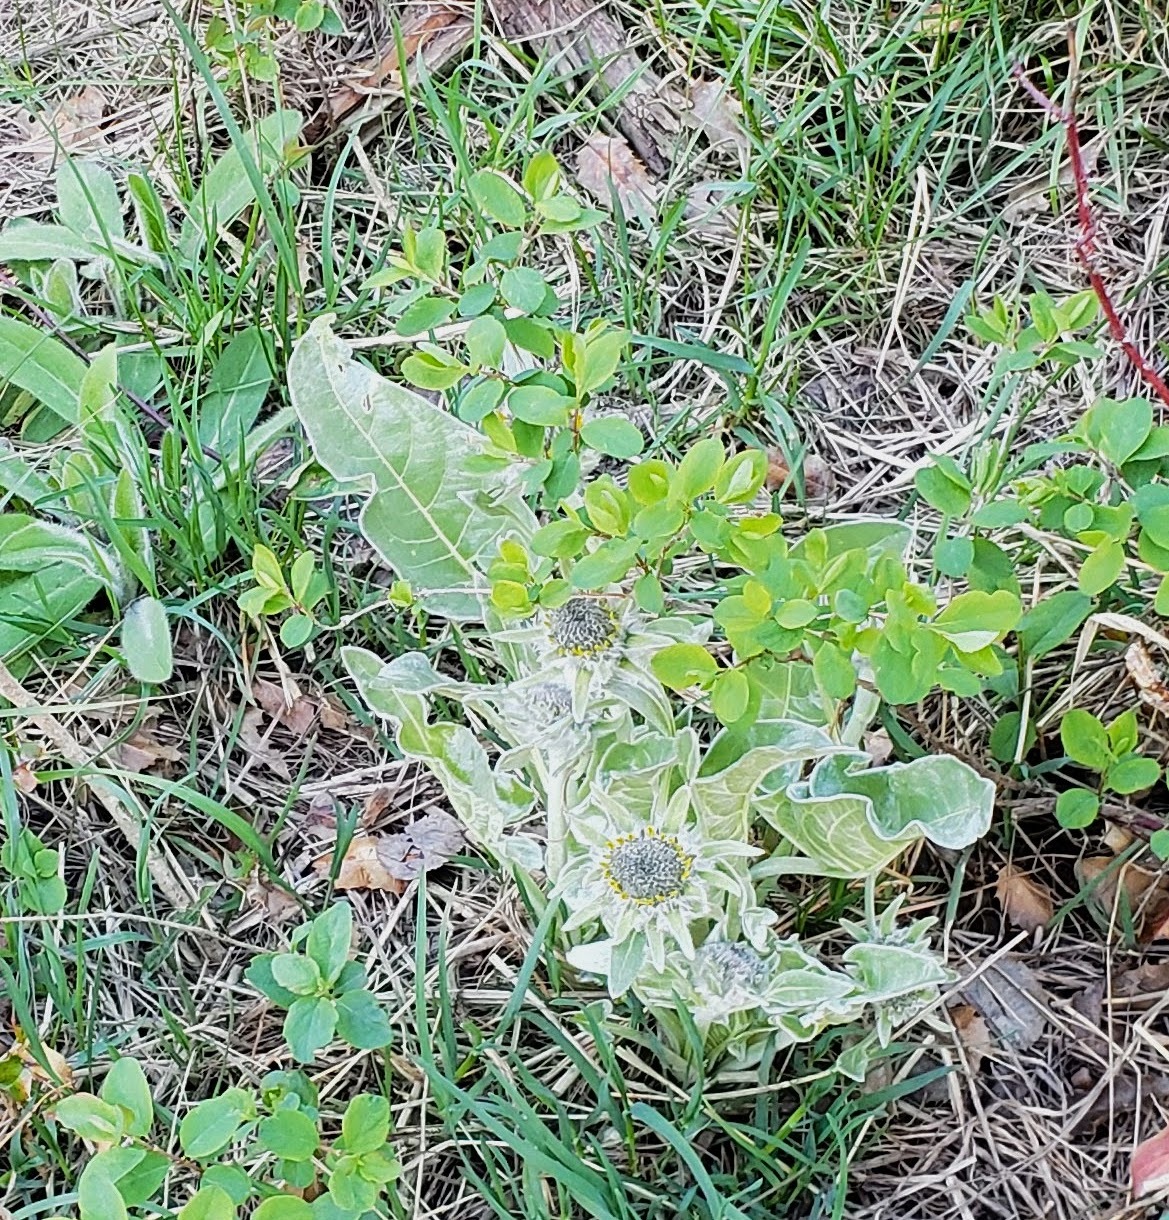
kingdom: Plantae
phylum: Tracheophyta
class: Magnoliopsida
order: Asterales
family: Asteraceae
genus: Wyethia
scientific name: Wyethia sagittata
